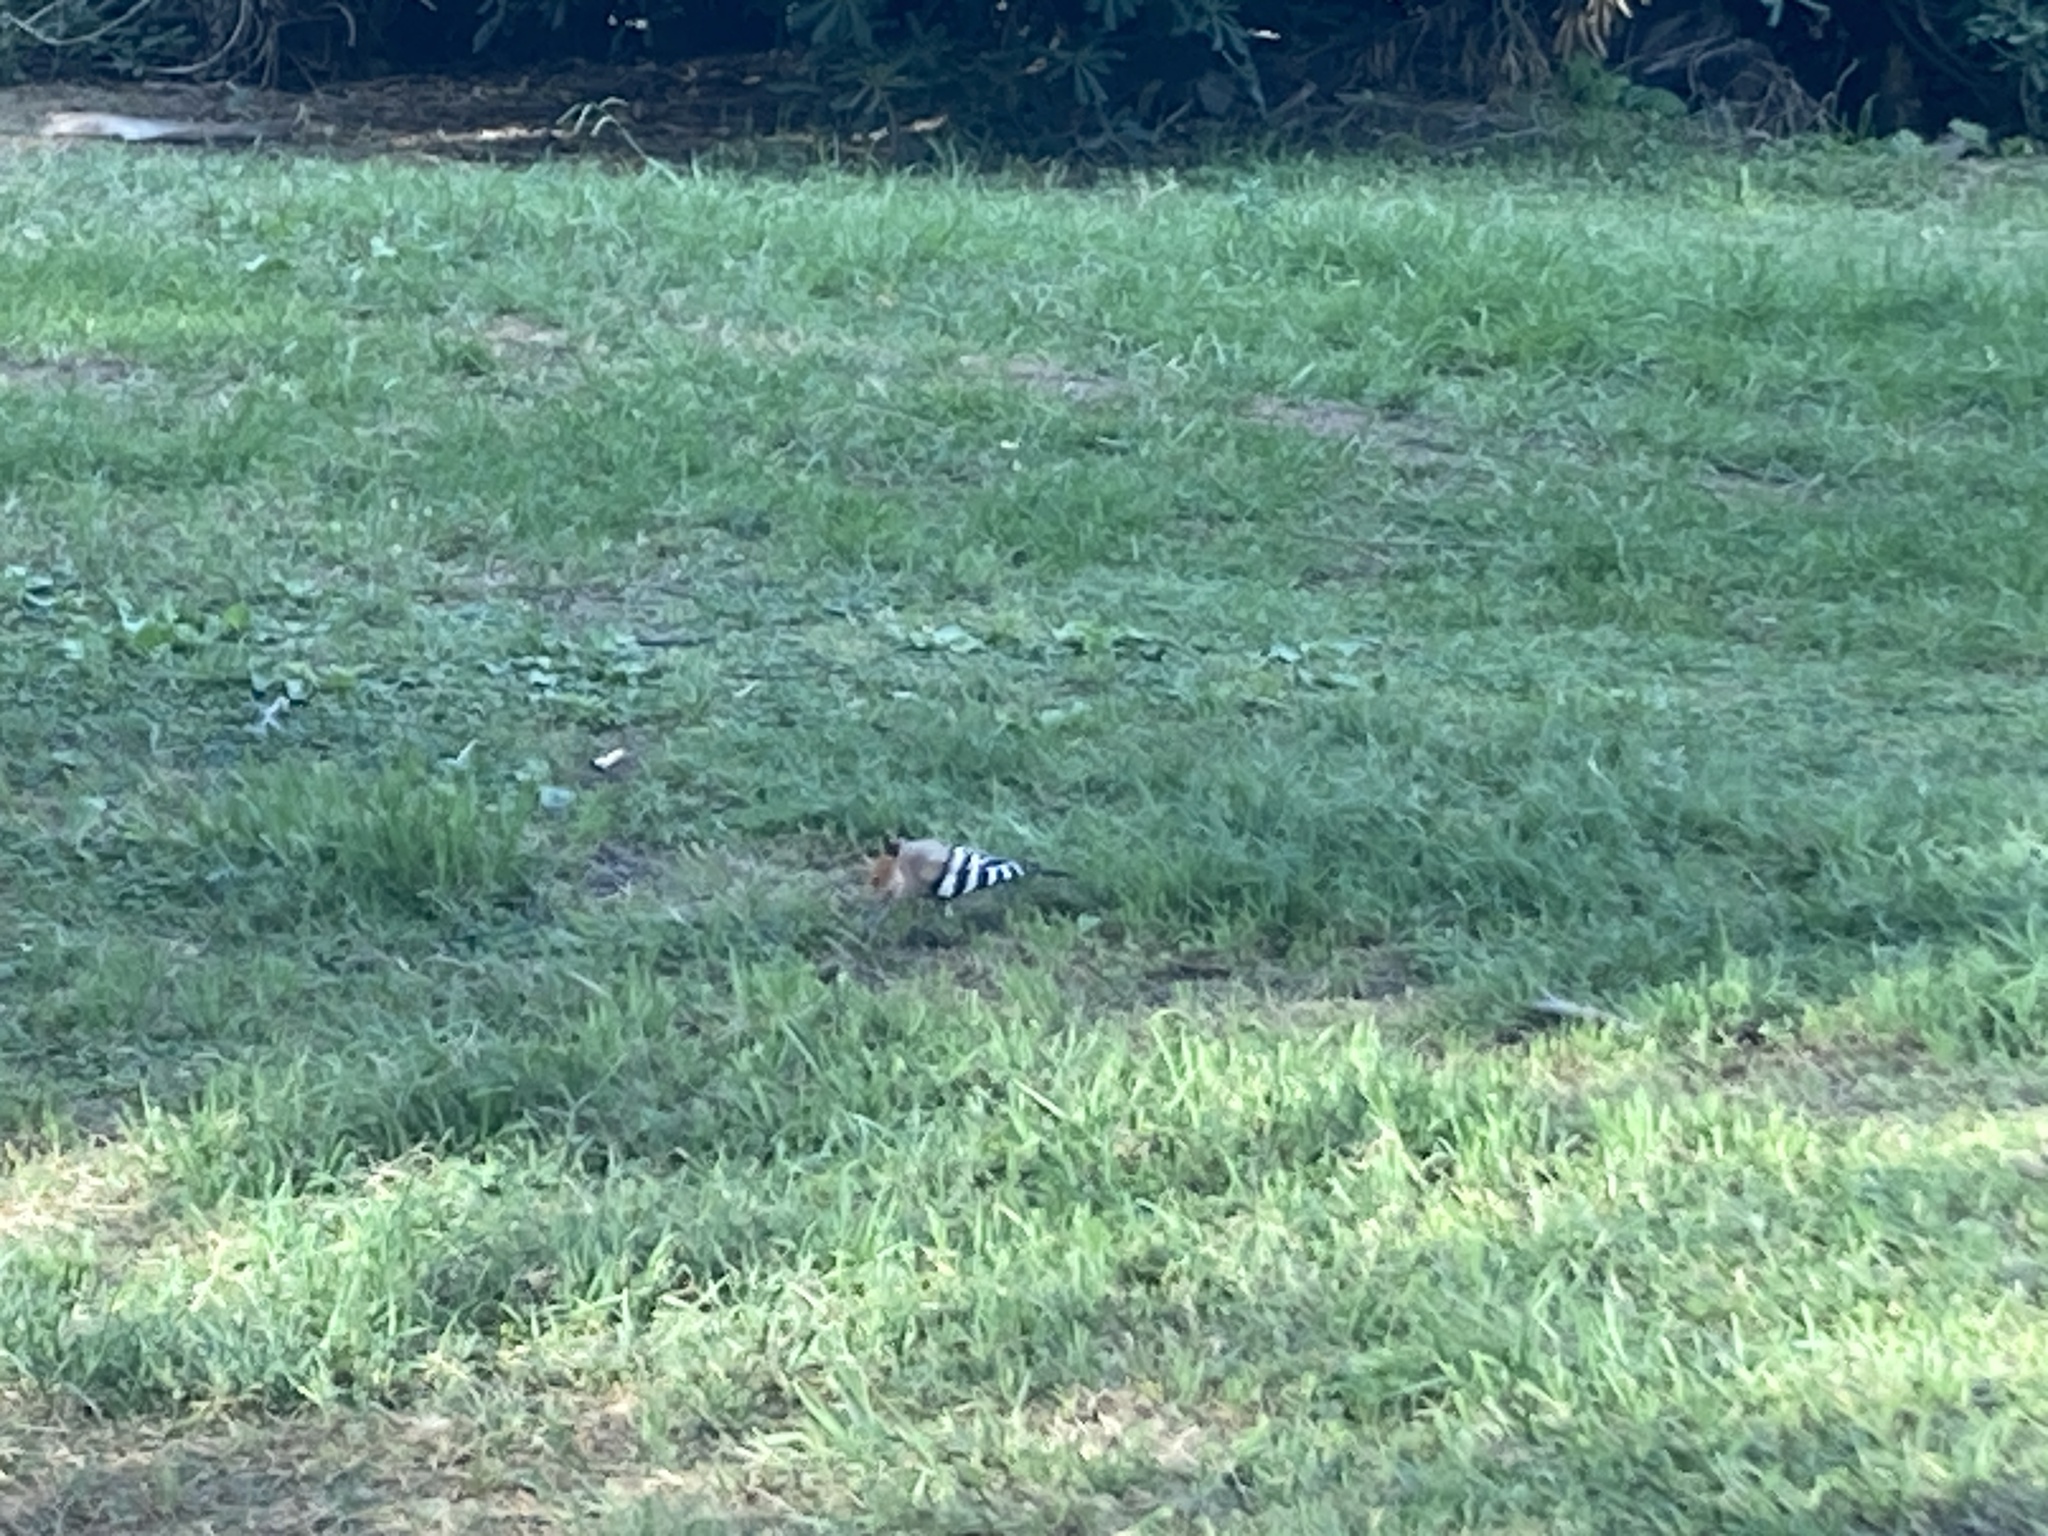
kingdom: Animalia
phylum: Chordata
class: Aves
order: Bucerotiformes
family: Upupidae
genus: Upupa
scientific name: Upupa epops
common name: Eurasian hoopoe
